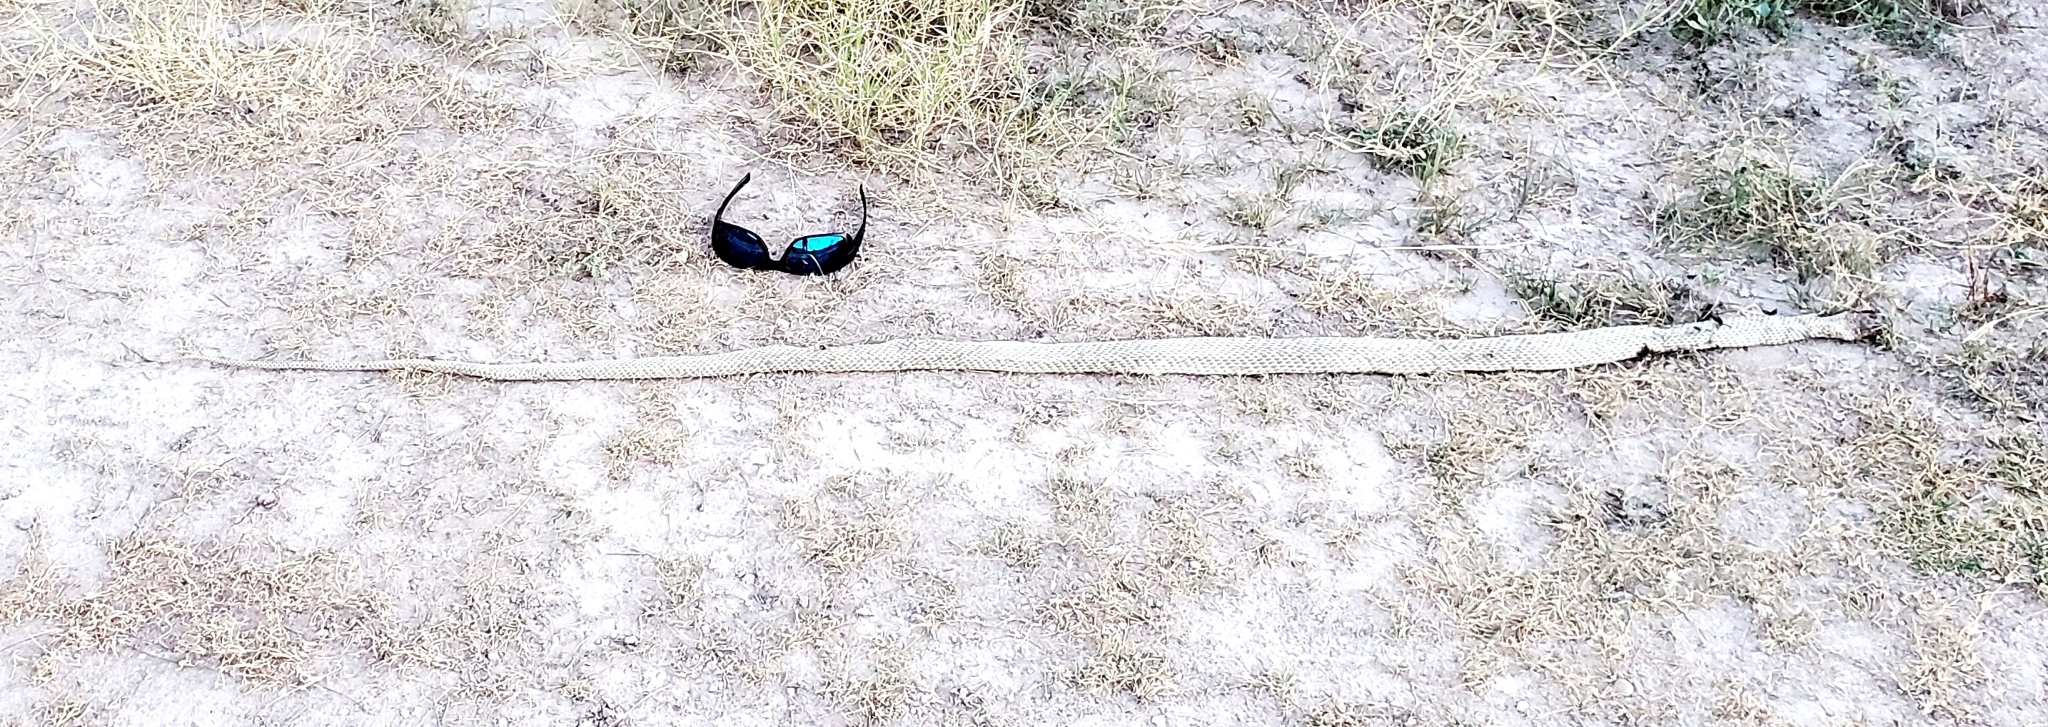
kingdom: Animalia
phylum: Chordata
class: Squamata
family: Colubridae
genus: Masticophis
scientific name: Masticophis flagellum
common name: Coachwhip
